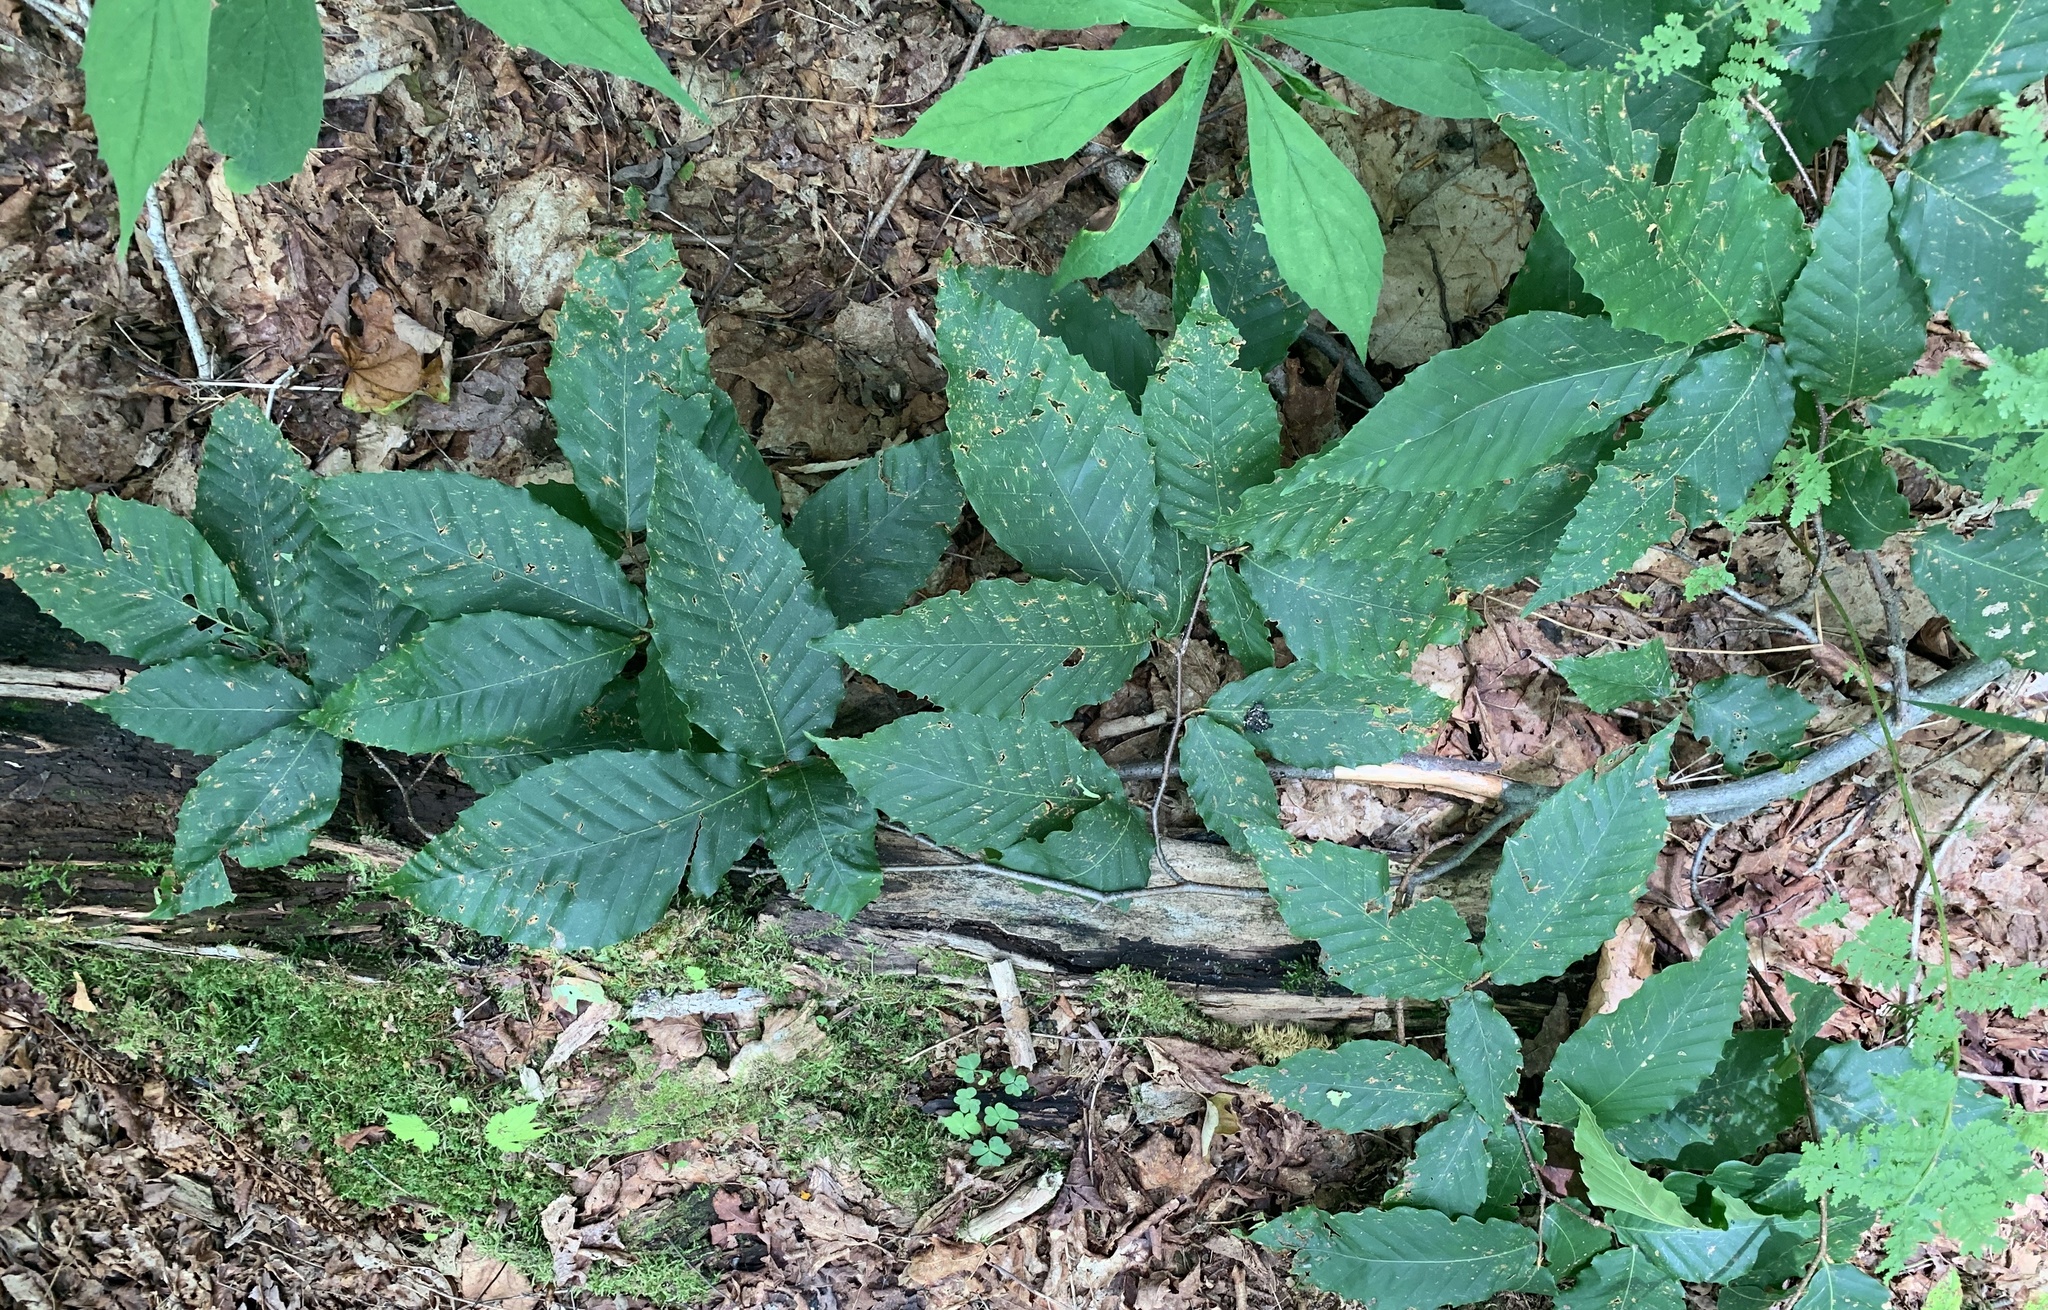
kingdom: Plantae
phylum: Tracheophyta
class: Magnoliopsida
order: Fagales
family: Fagaceae
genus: Fagus
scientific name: Fagus grandifolia
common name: American beech
